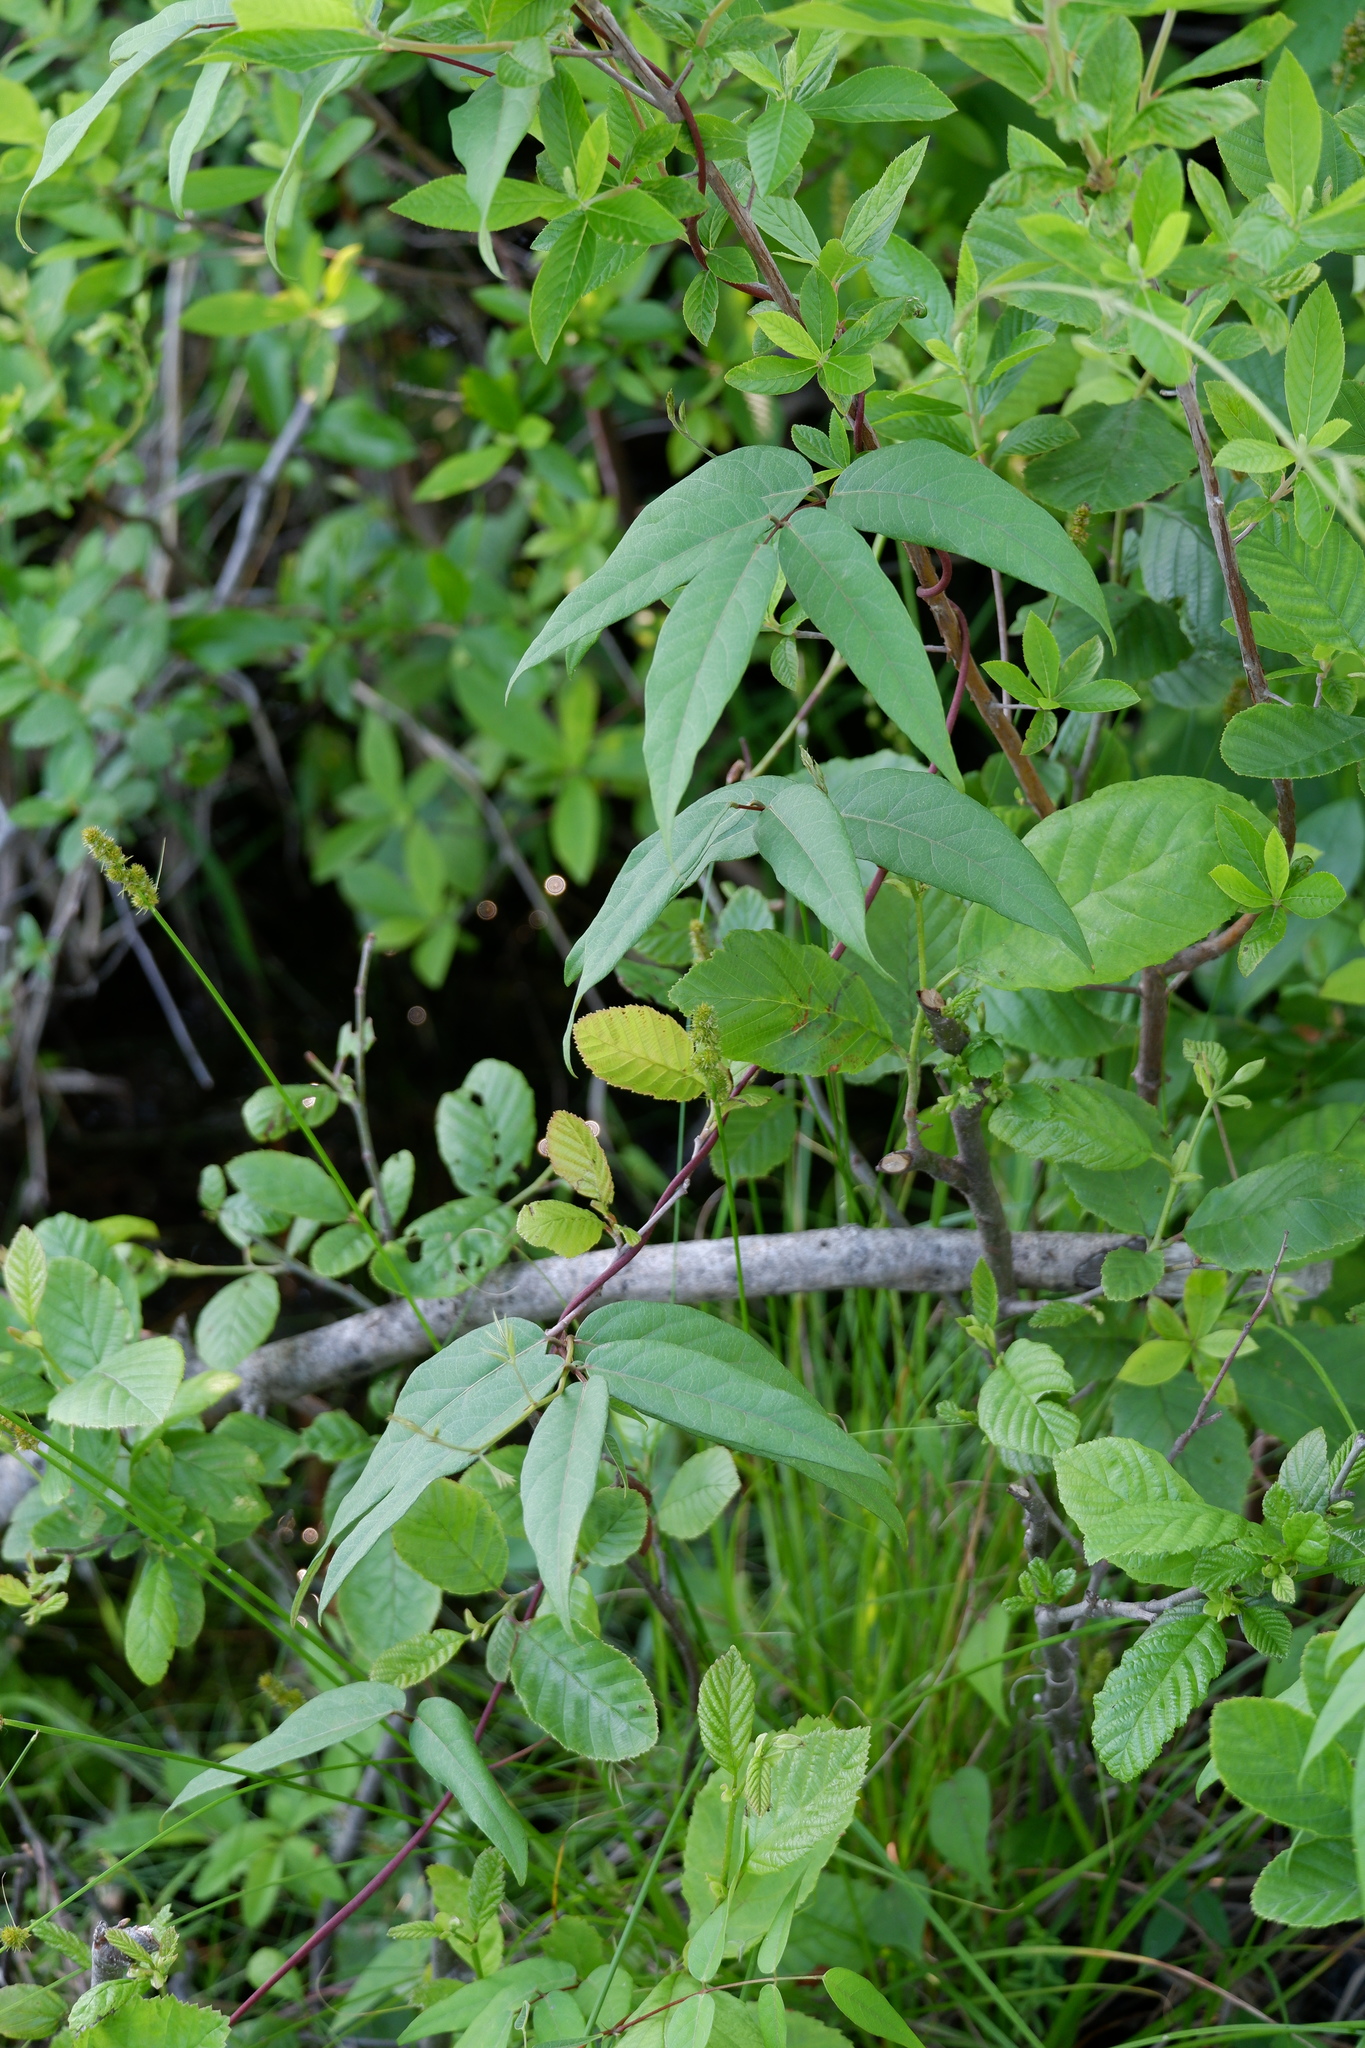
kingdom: Plantae
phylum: Tracheophyta
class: Magnoliopsida
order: Fabales
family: Fabaceae
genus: Apios
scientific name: Apios americana
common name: American potato-bean
